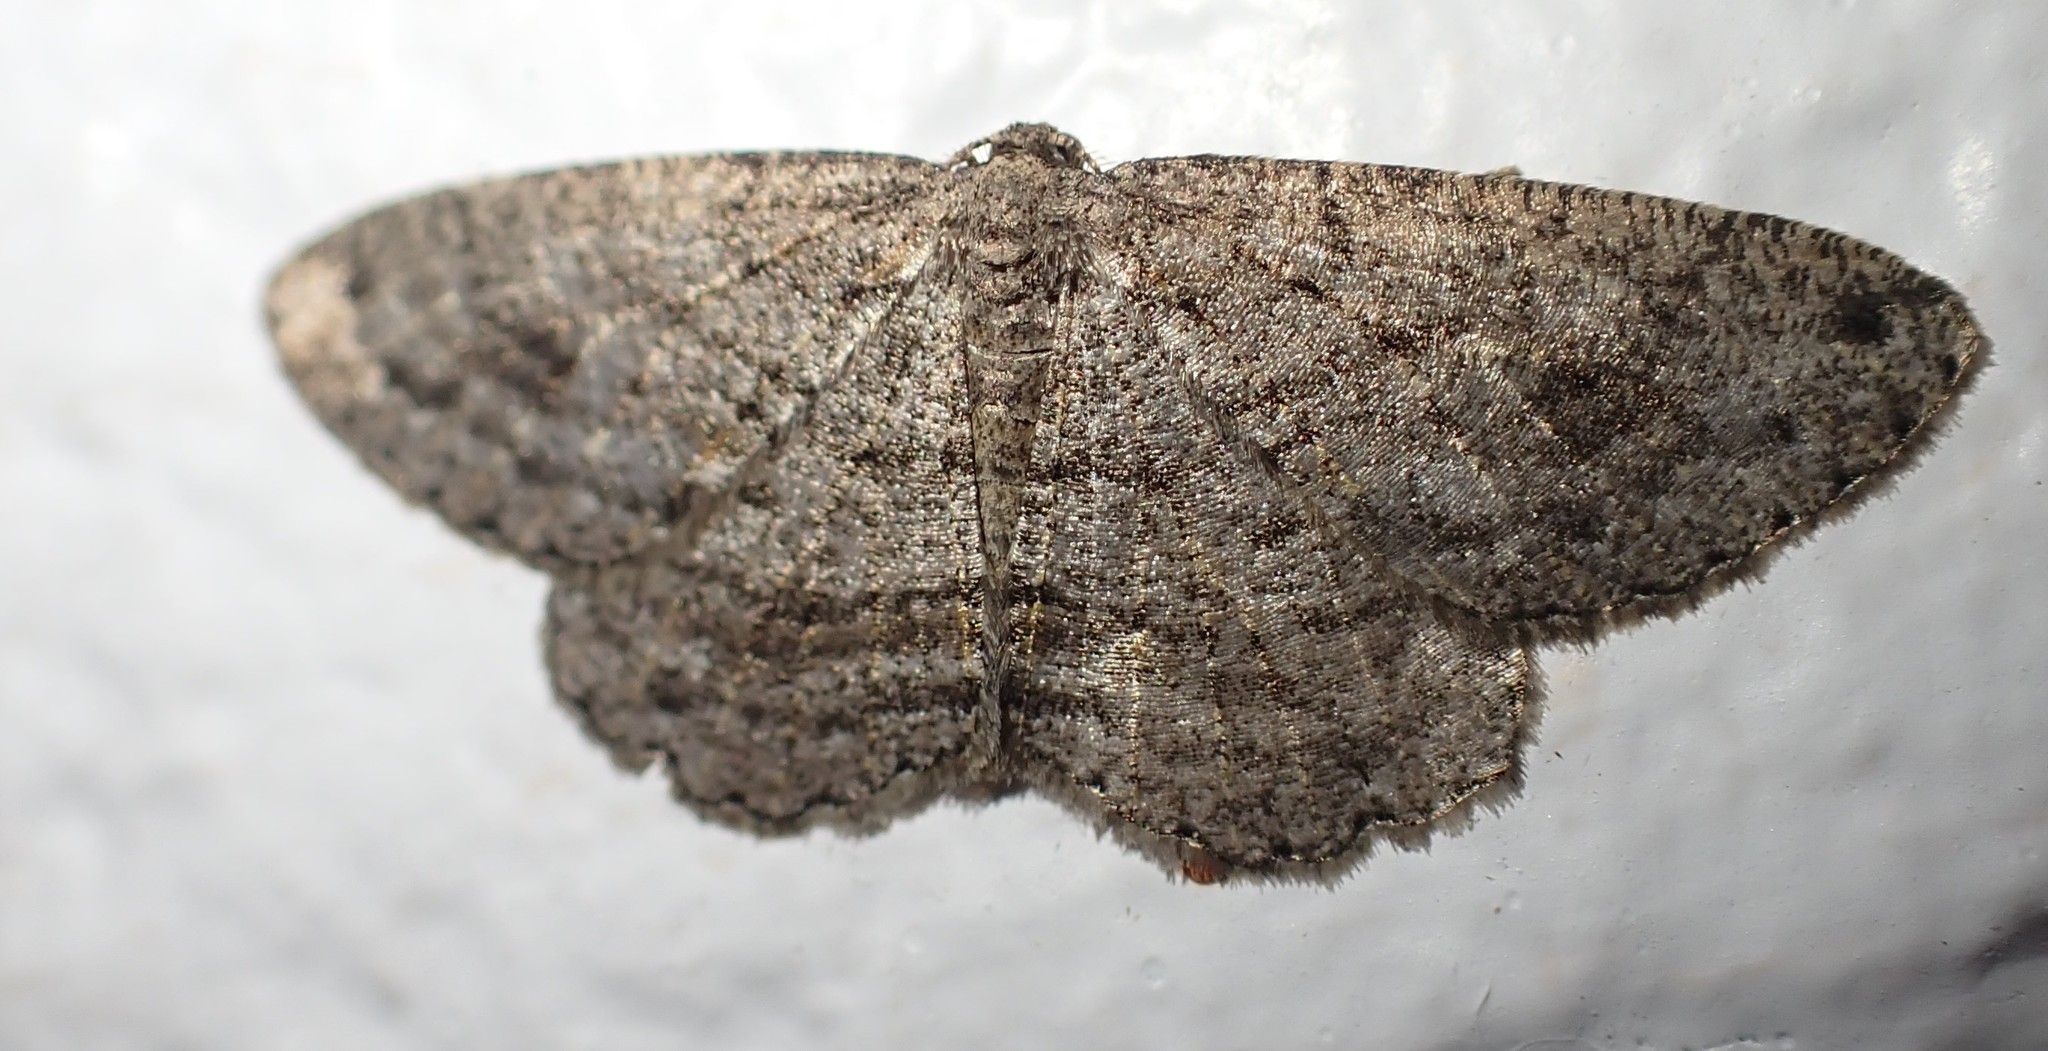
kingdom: Animalia
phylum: Arthropoda
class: Insecta
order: Lepidoptera
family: Geometridae
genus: Zermizinga
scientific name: Zermizinga sinuata
